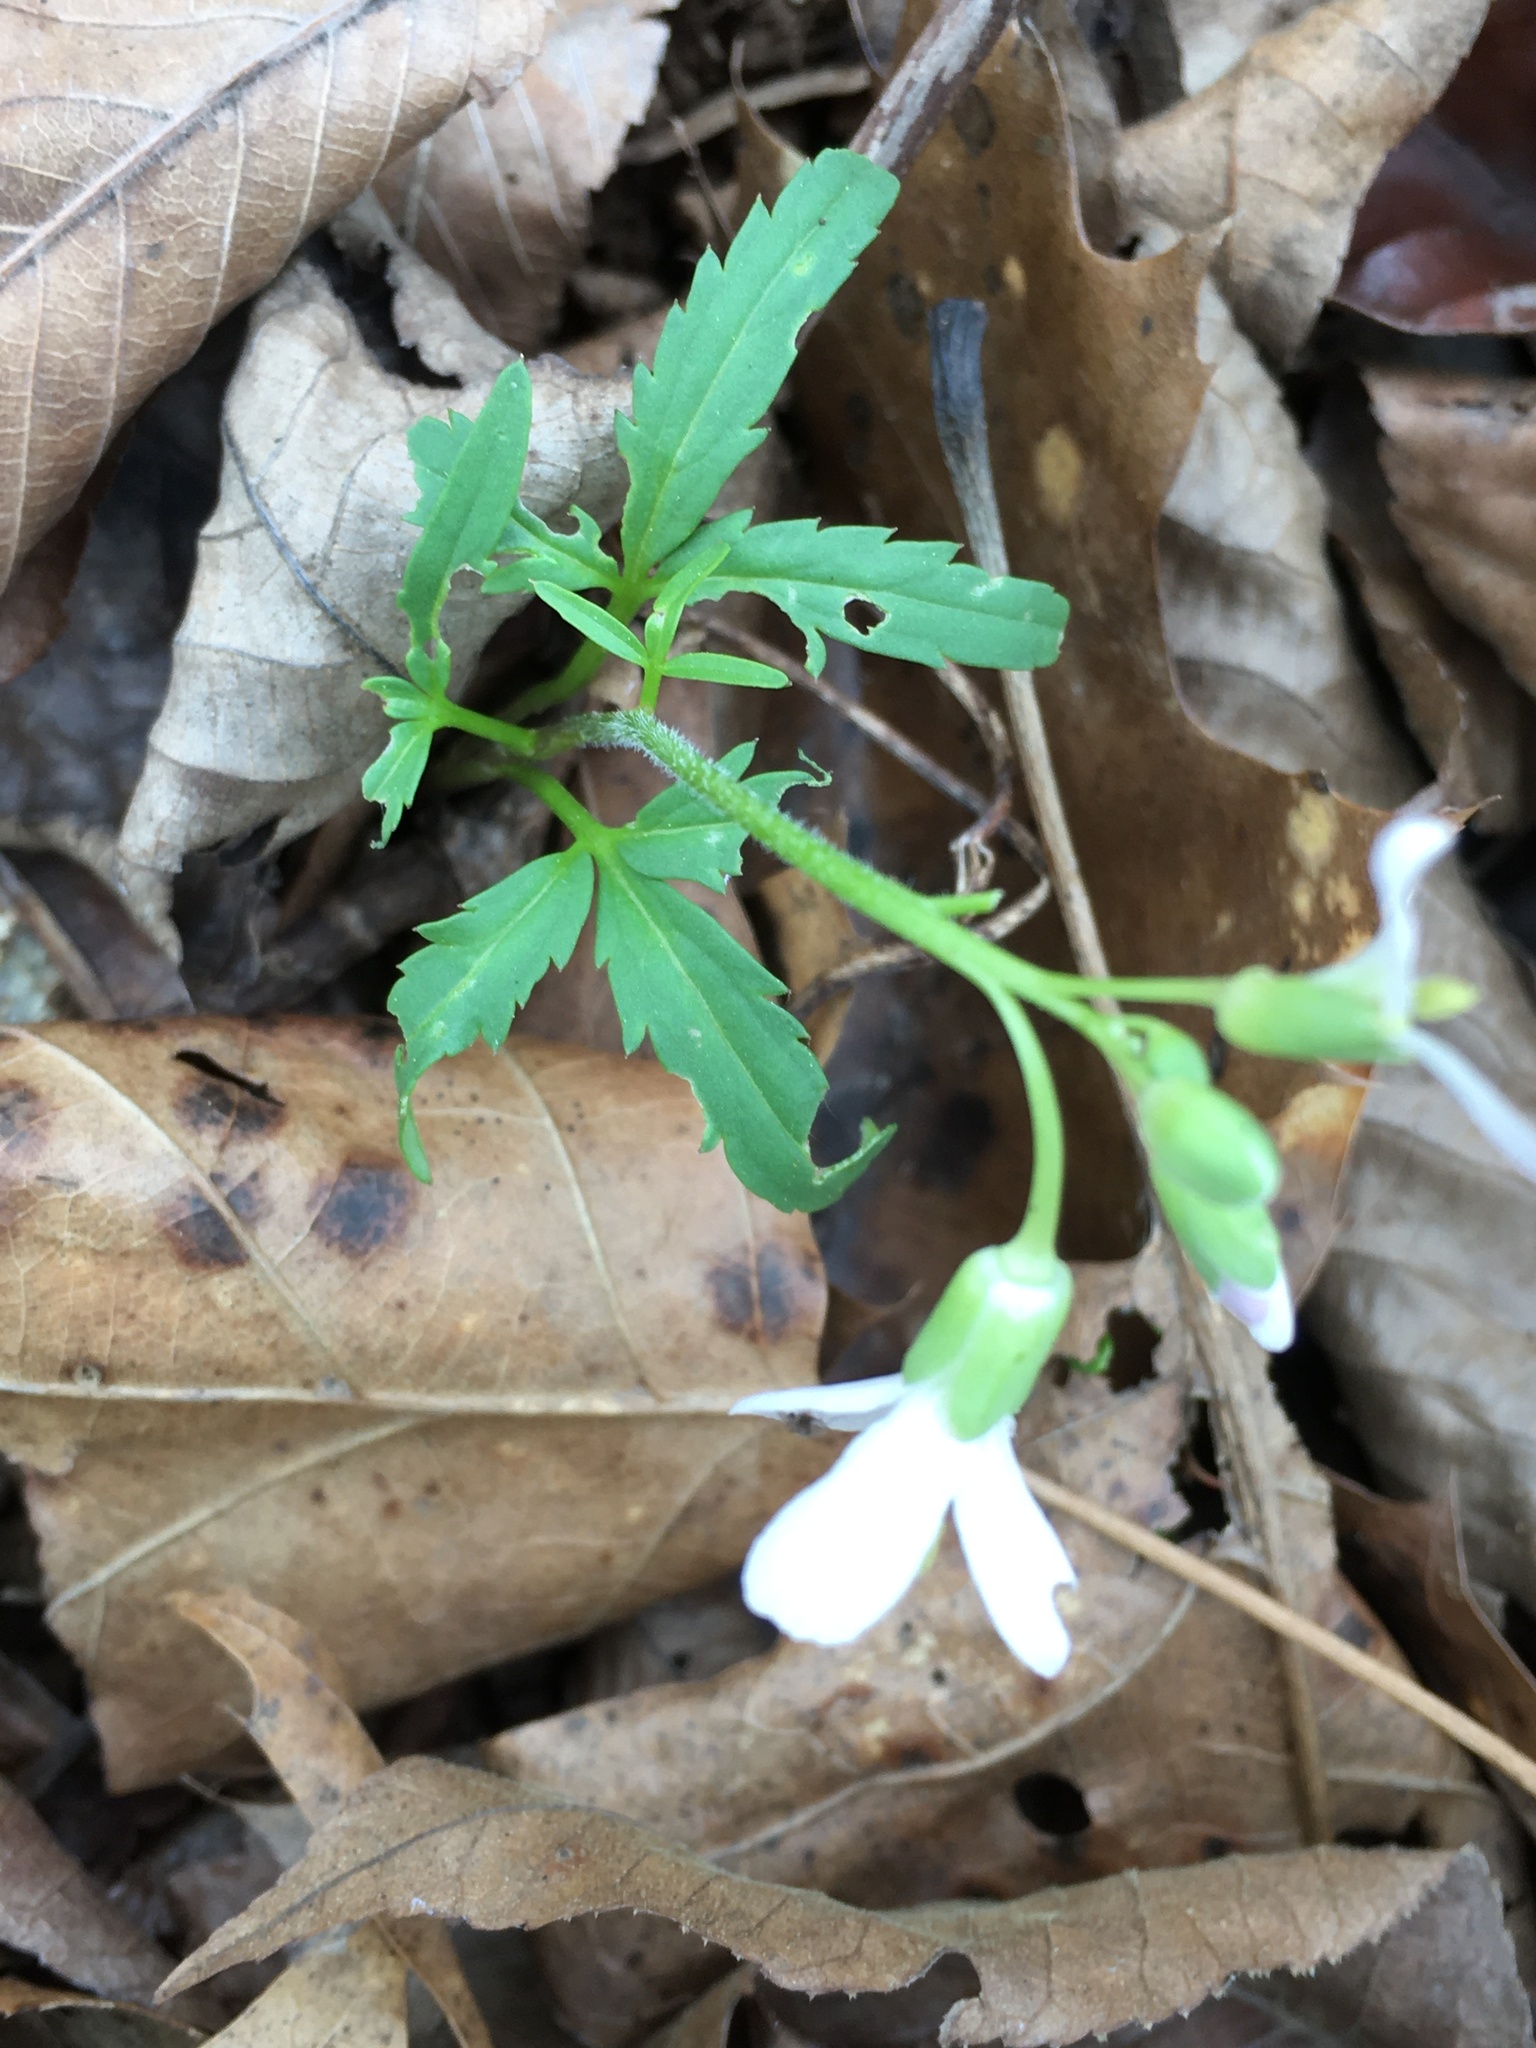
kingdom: Plantae
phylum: Tracheophyta
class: Magnoliopsida
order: Brassicales
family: Brassicaceae
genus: Cardamine
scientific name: Cardamine concatenata
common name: Cut-leaf toothcup
